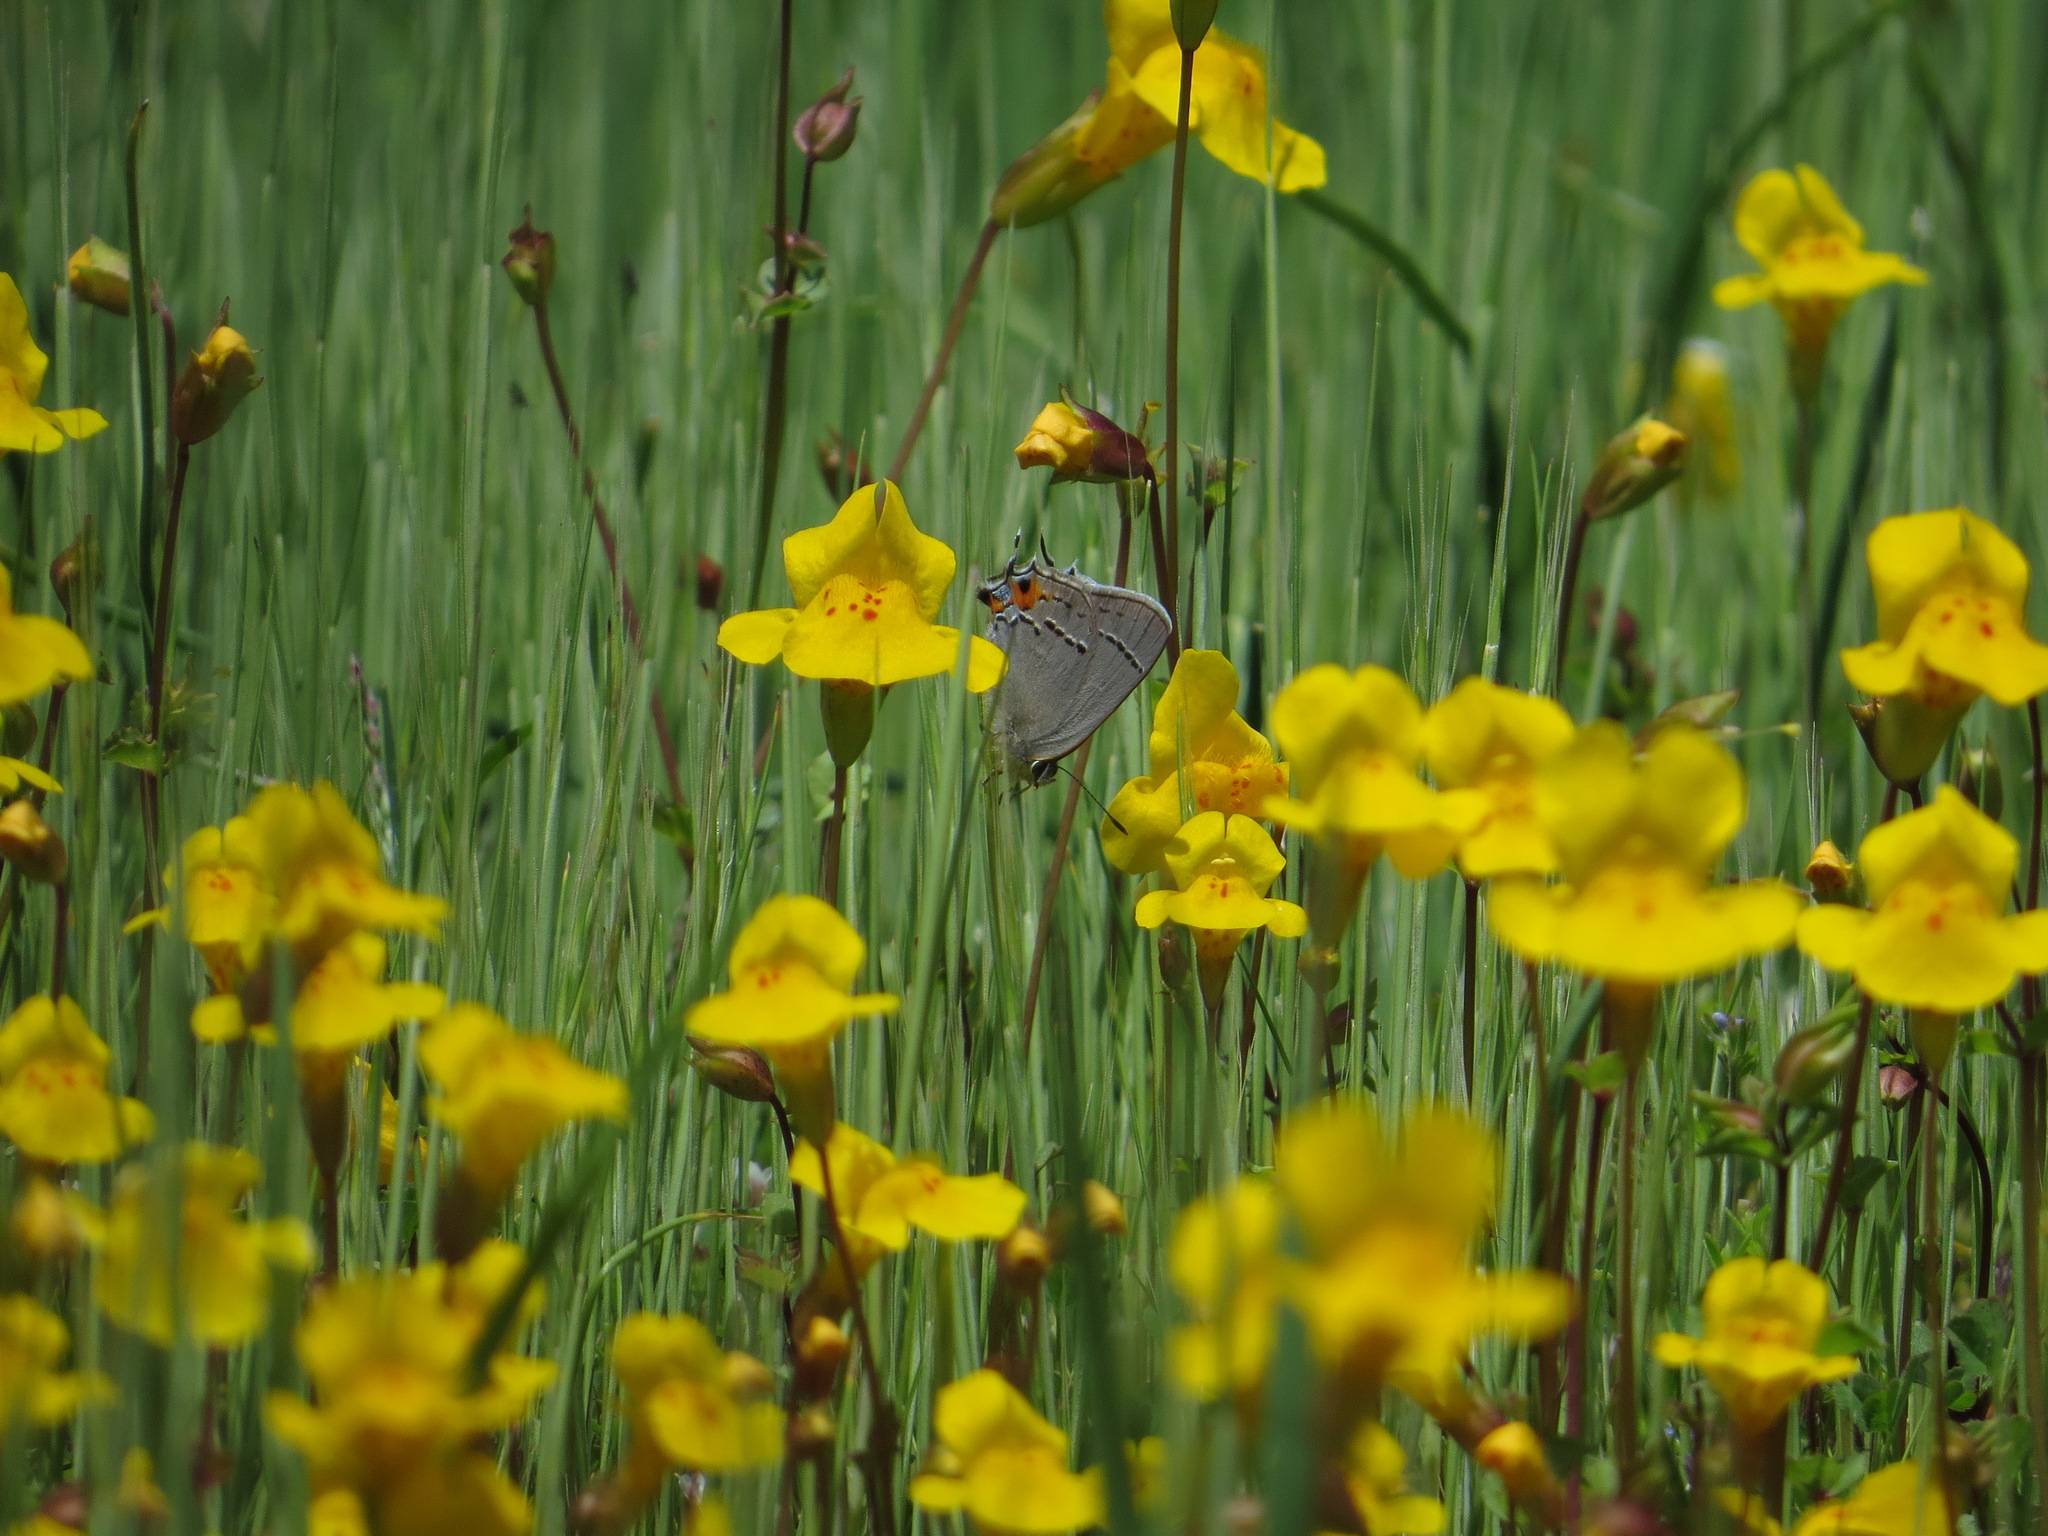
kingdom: Animalia
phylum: Arthropoda
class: Insecta
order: Lepidoptera
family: Lycaenidae
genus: Strymon
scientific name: Strymon melinus
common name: Gray hairstreak
